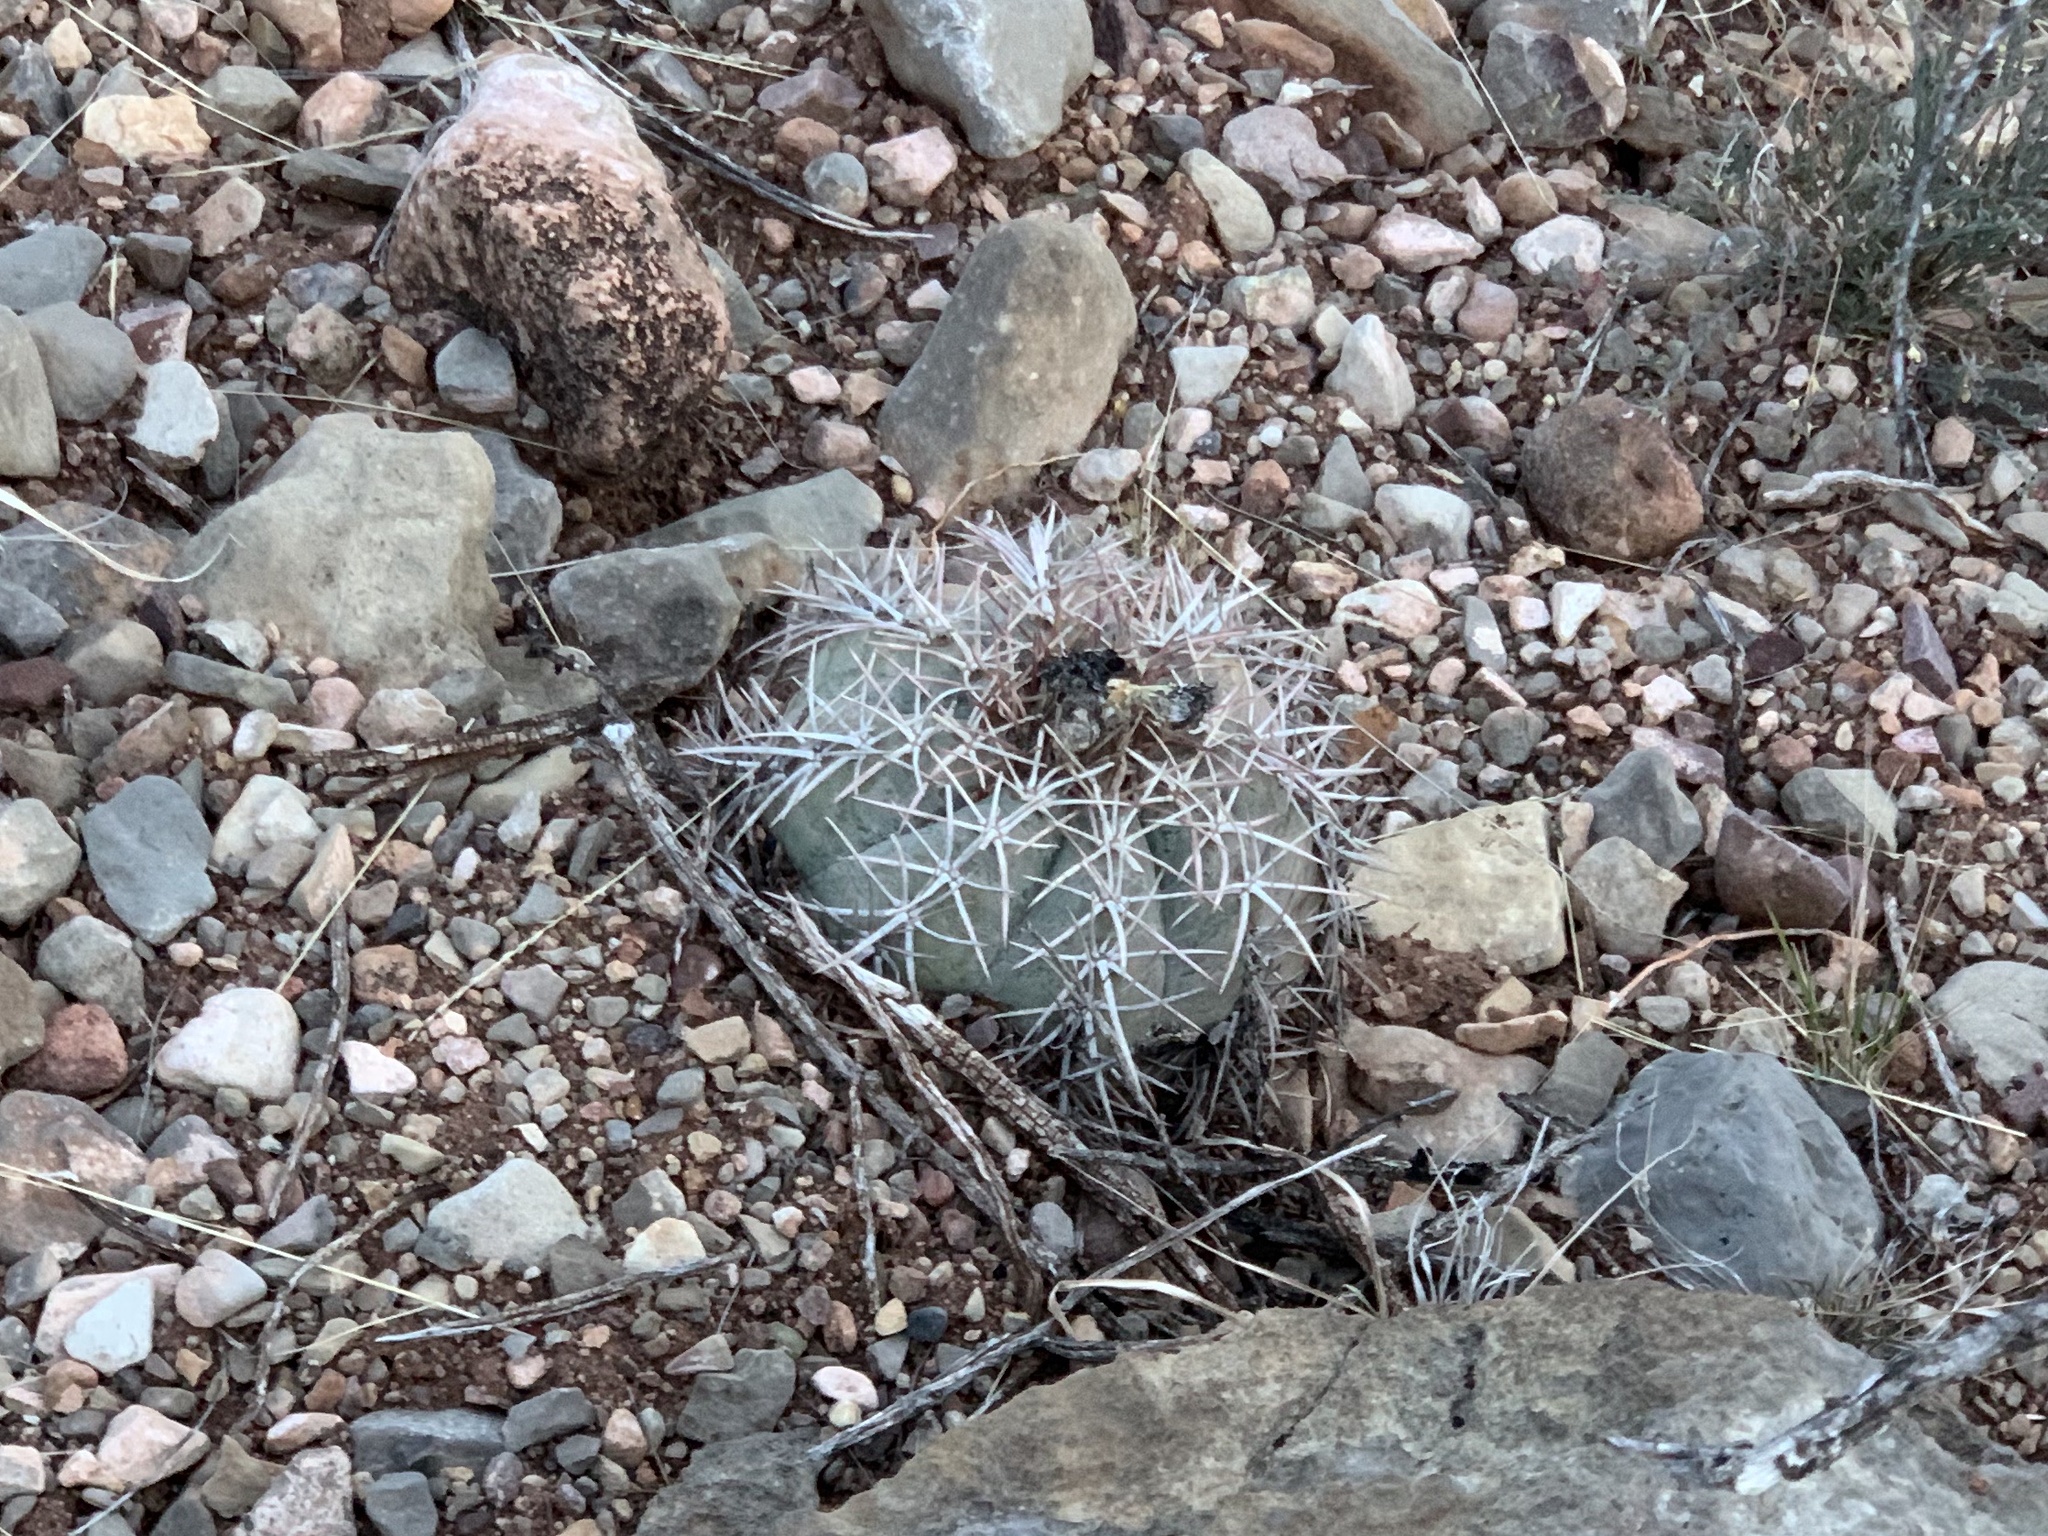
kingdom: Plantae
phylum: Tracheophyta
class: Magnoliopsida
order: Caryophyllales
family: Cactaceae
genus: Echinocactus
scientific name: Echinocactus horizonthalonius
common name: Devilshead
